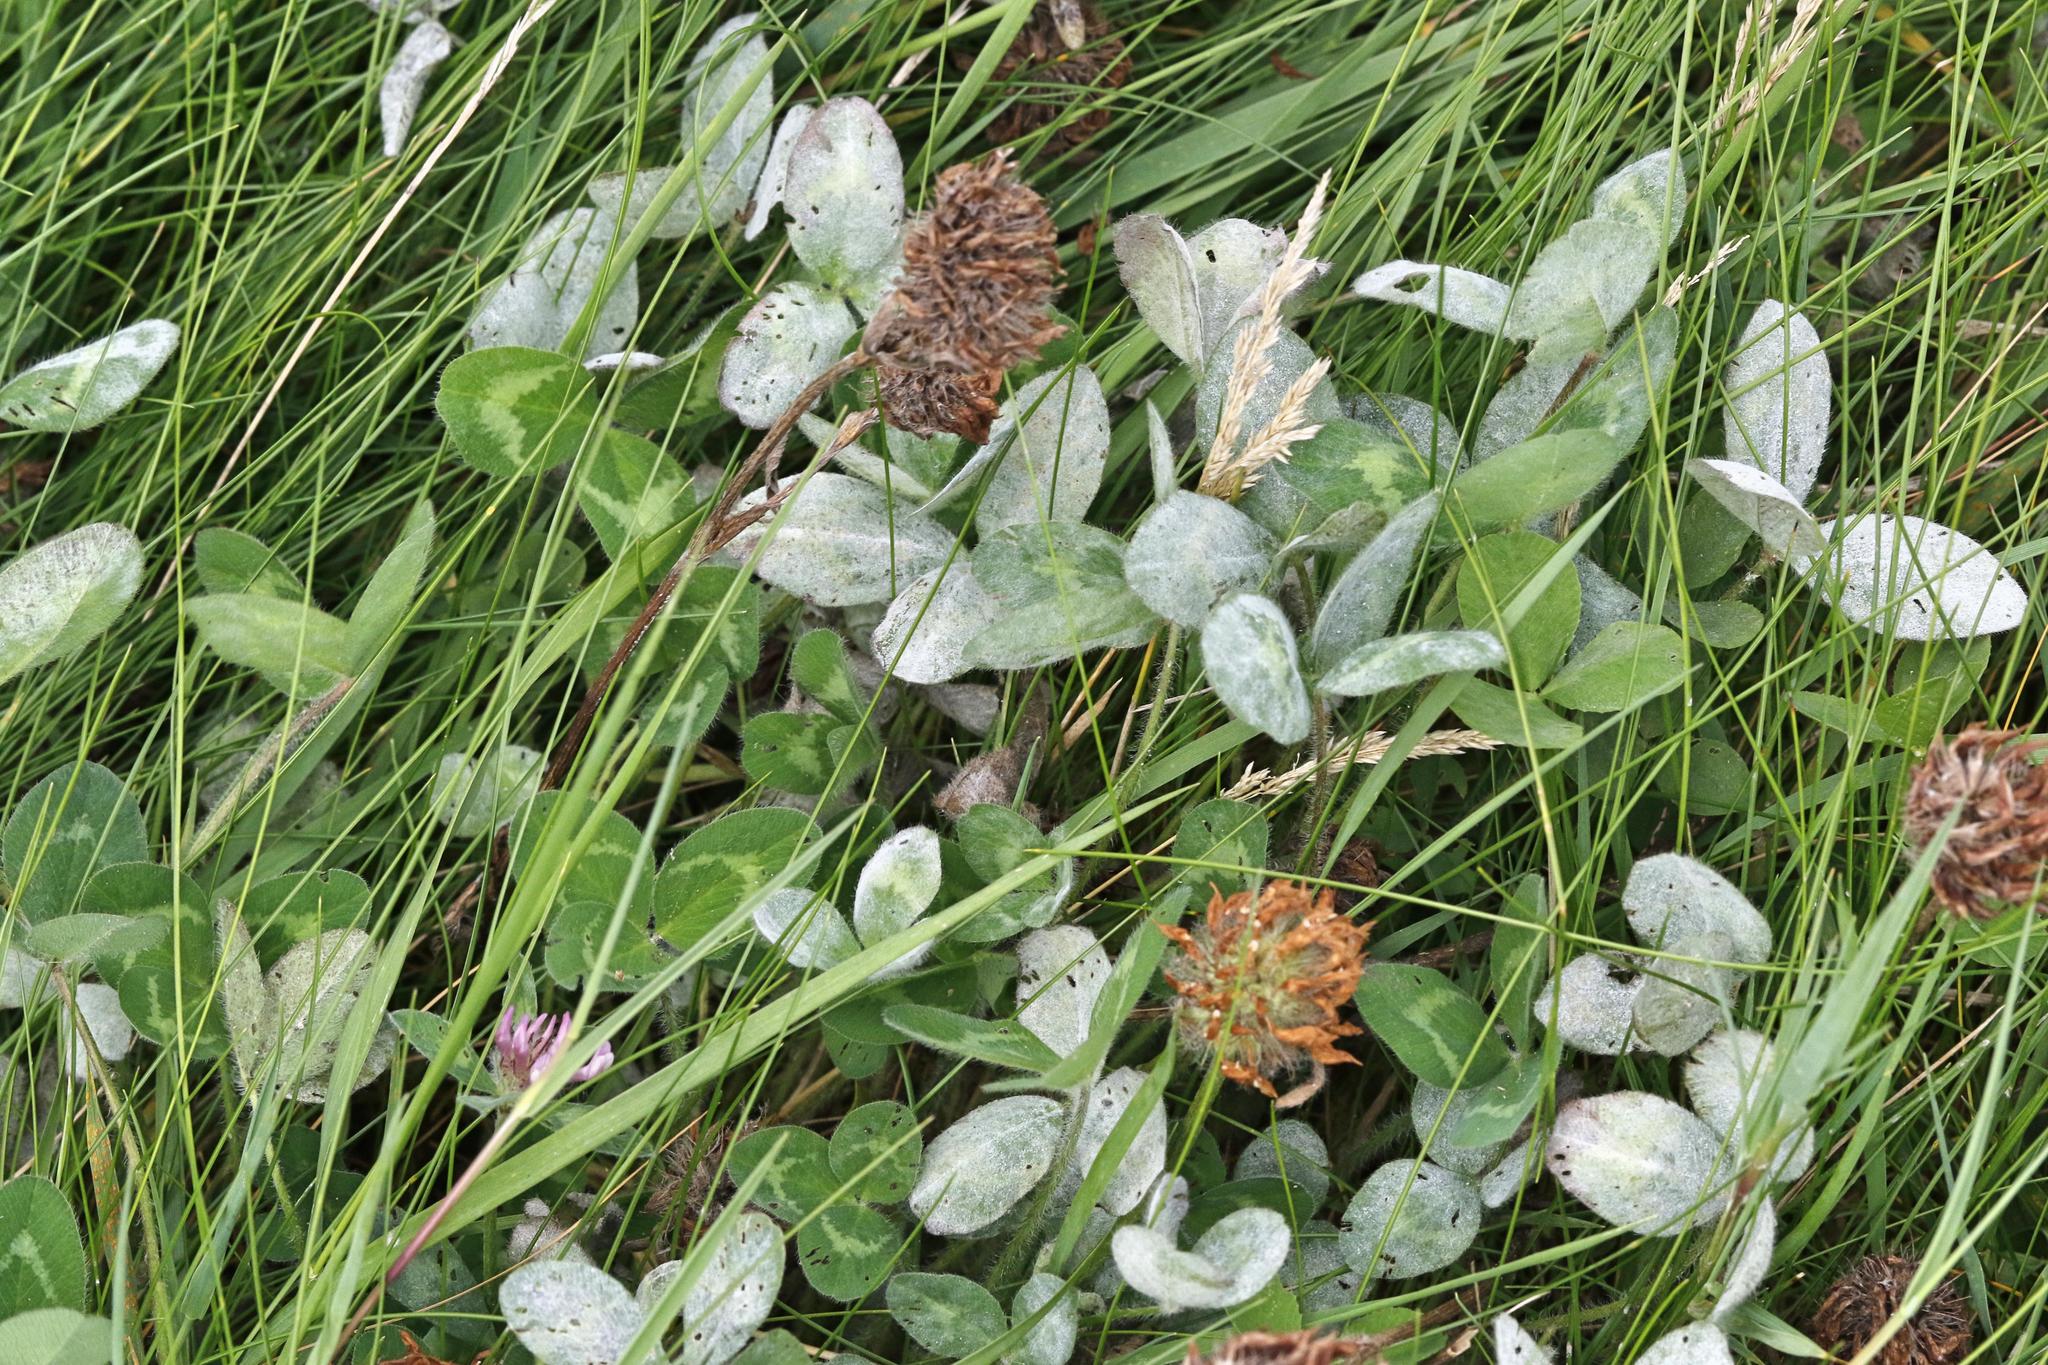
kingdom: Plantae
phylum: Tracheophyta
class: Magnoliopsida
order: Fabales
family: Fabaceae
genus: Trifolium
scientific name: Trifolium pratense
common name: Red clover
